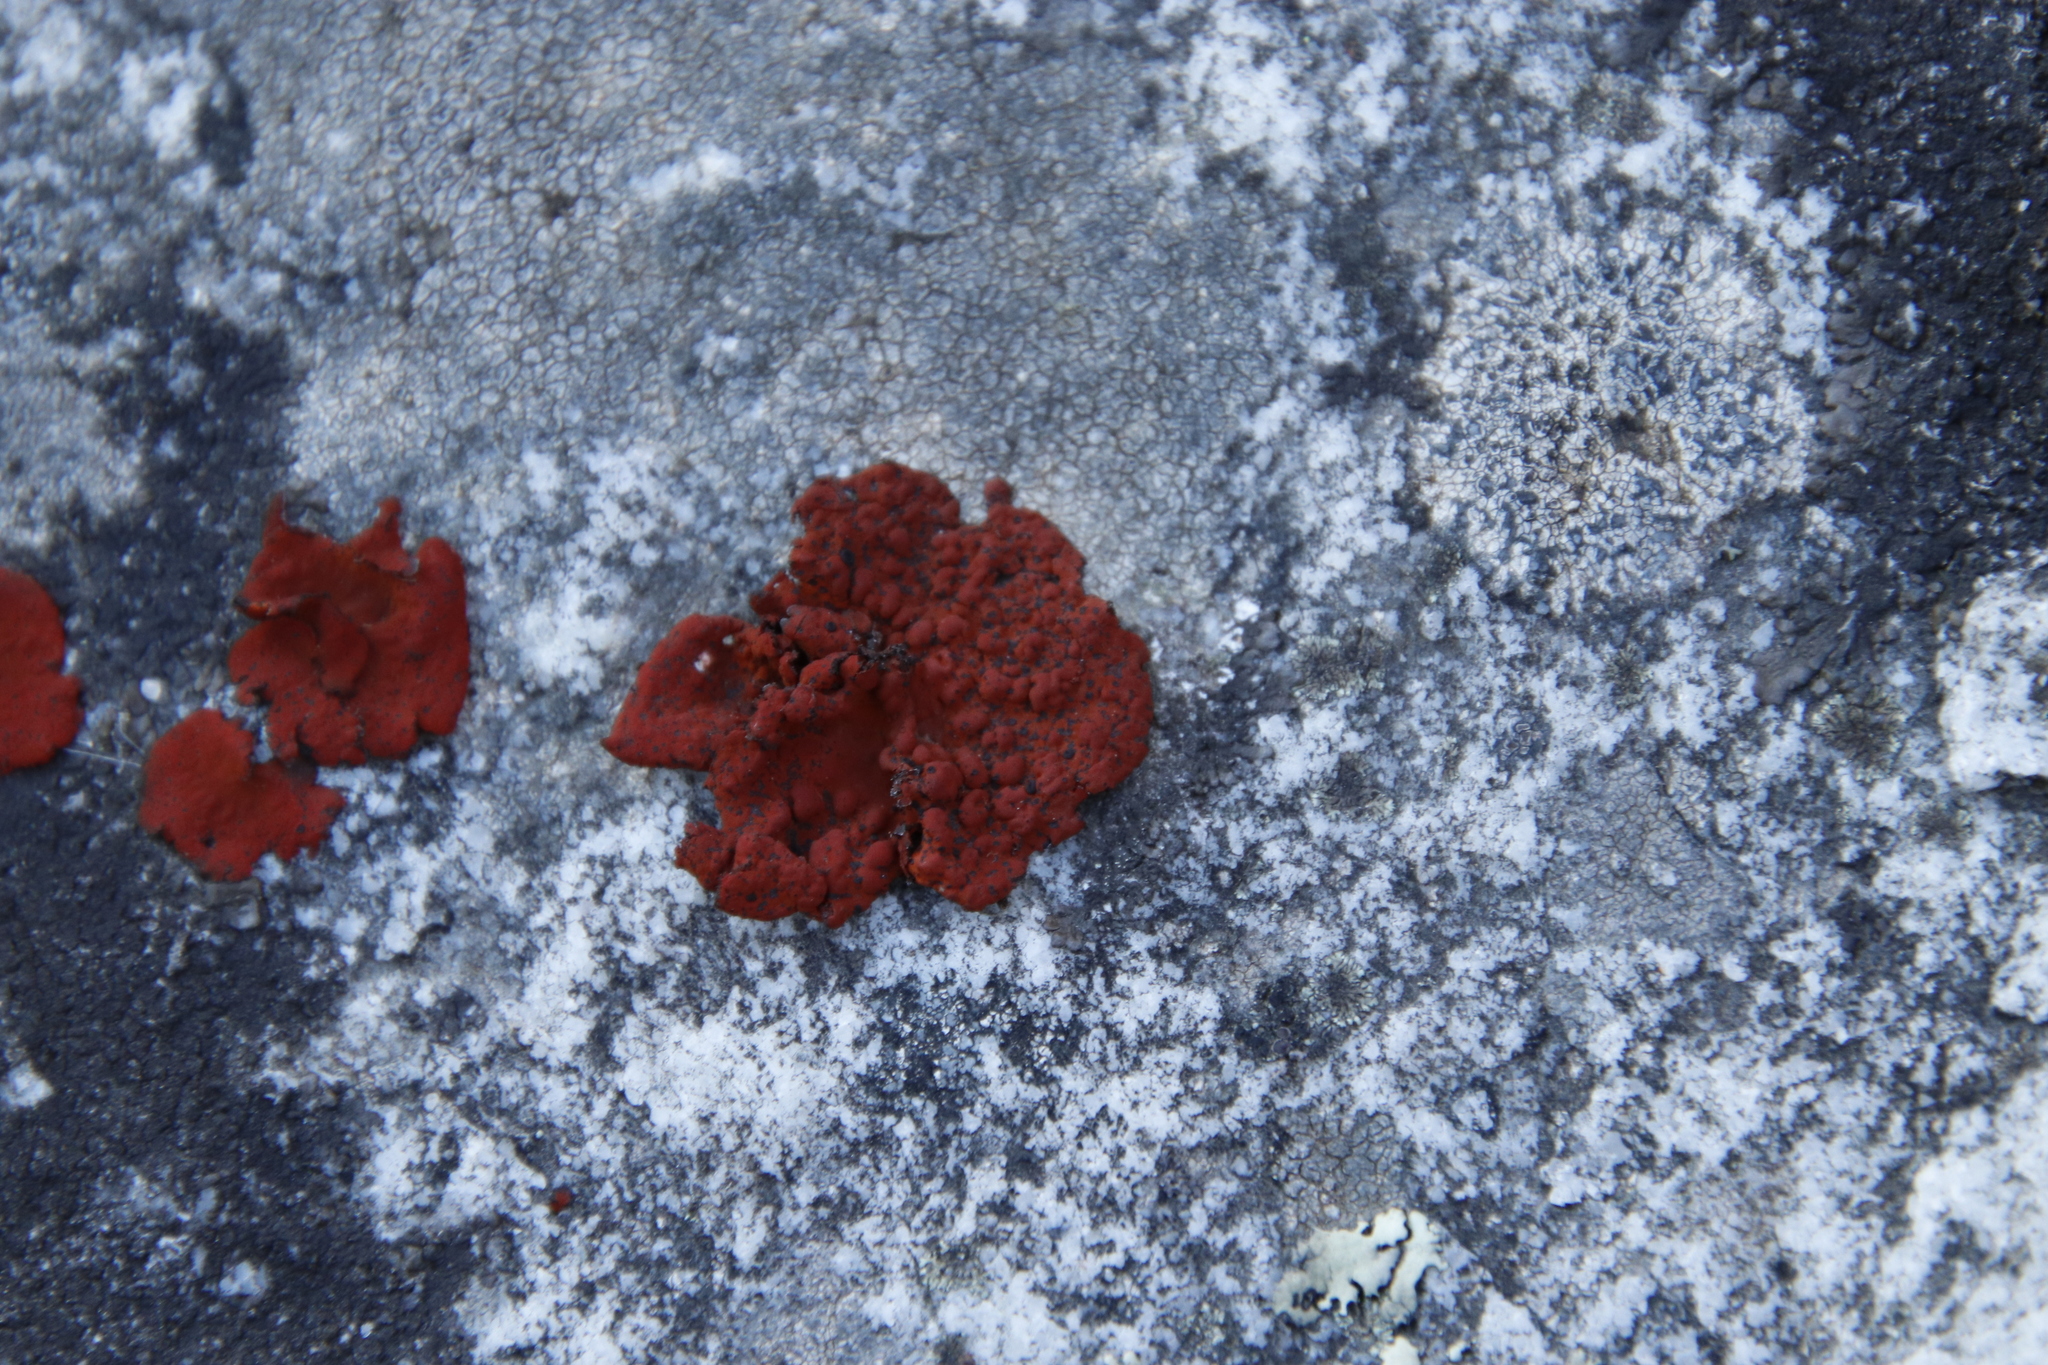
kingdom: Fungi
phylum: Ascomycota
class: Lecanoromycetes
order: Umbilicariales
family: Umbilicariaceae
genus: Lasallia
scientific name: Lasallia rubiginosa
